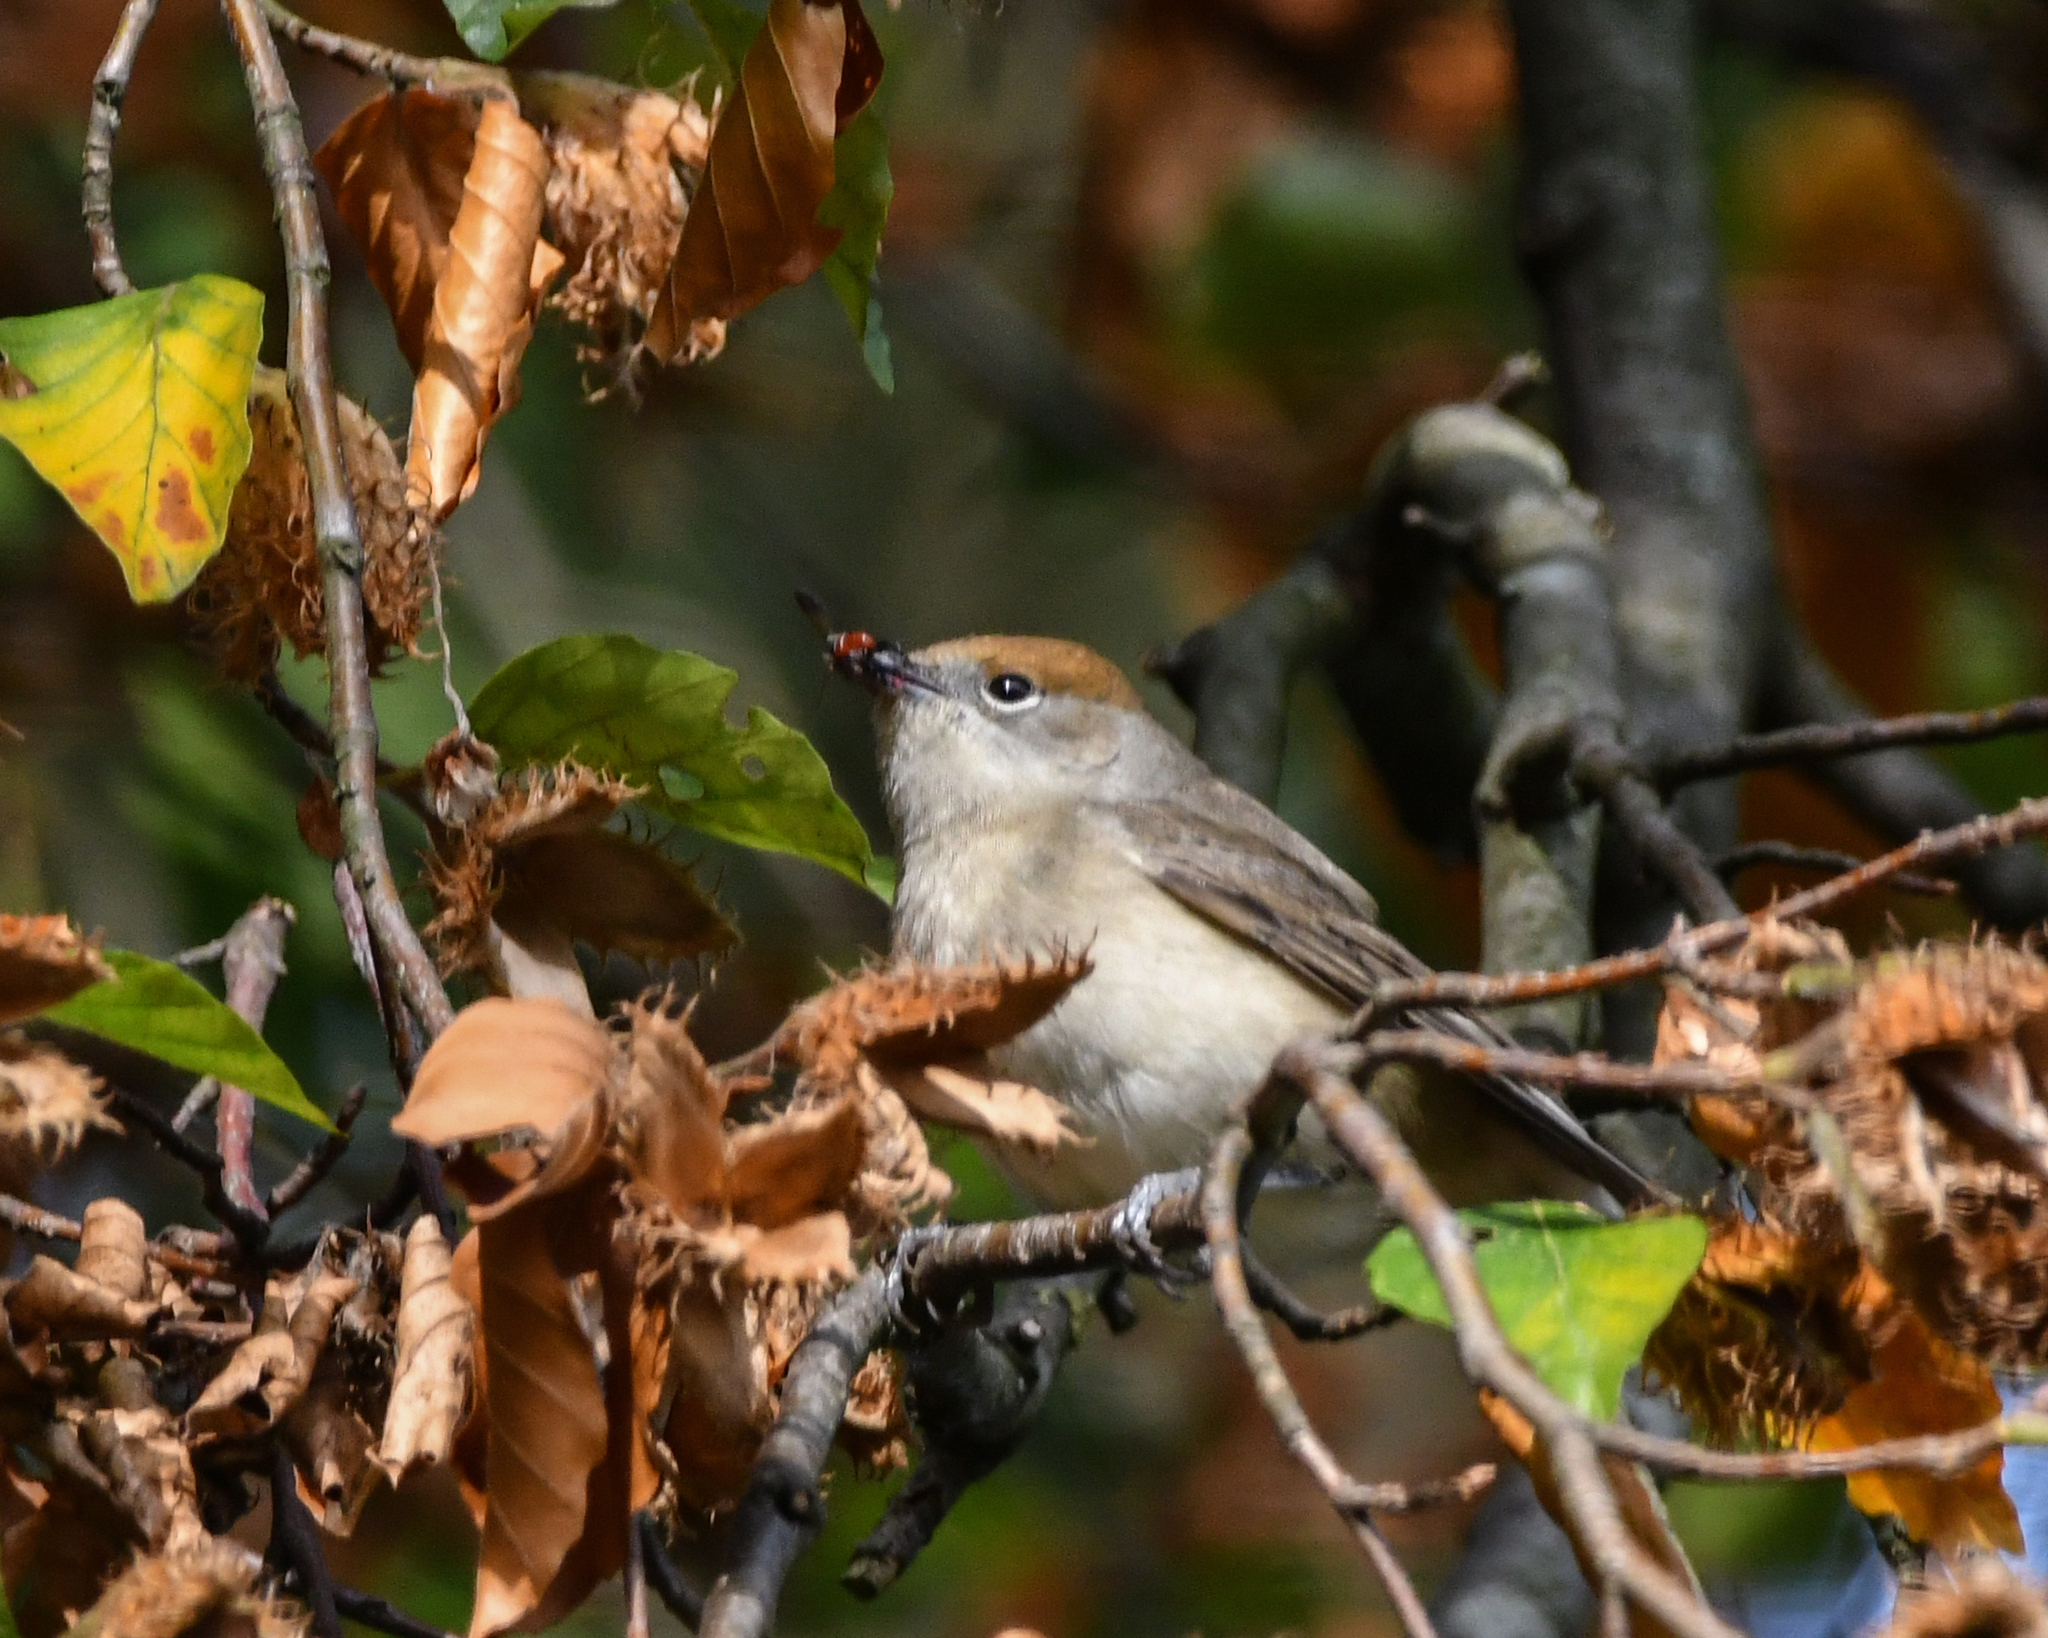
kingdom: Animalia
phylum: Chordata
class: Aves
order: Passeriformes
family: Sylviidae
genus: Sylvia
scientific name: Sylvia atricapilla
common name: Eurasian blackcap
